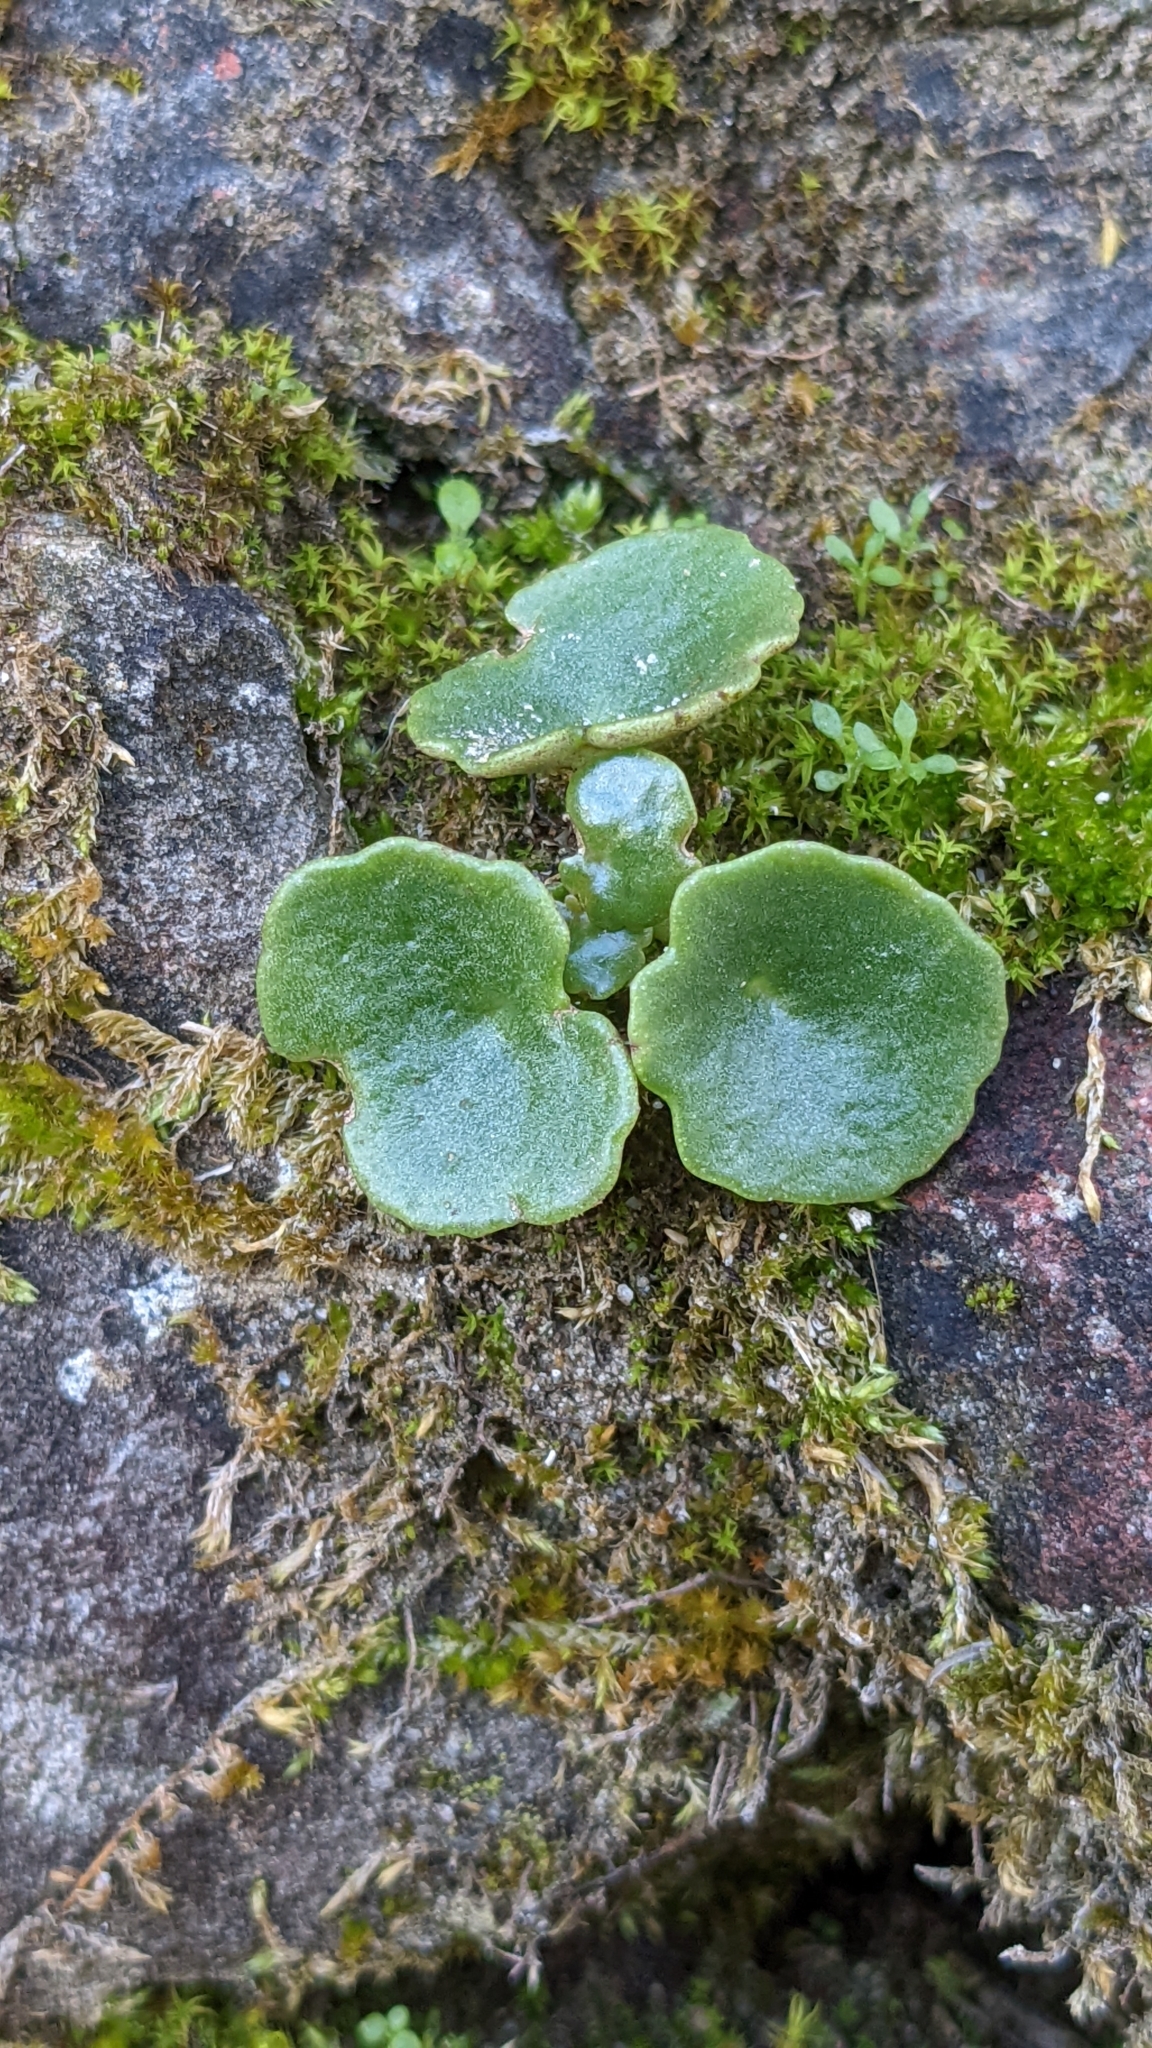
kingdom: Plantae
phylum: Tracheophyta
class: Magnoliopsida
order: Saxifragales
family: Crassulaceae
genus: Umbilicus
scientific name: Umbilicus rupestris
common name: Navelwort
